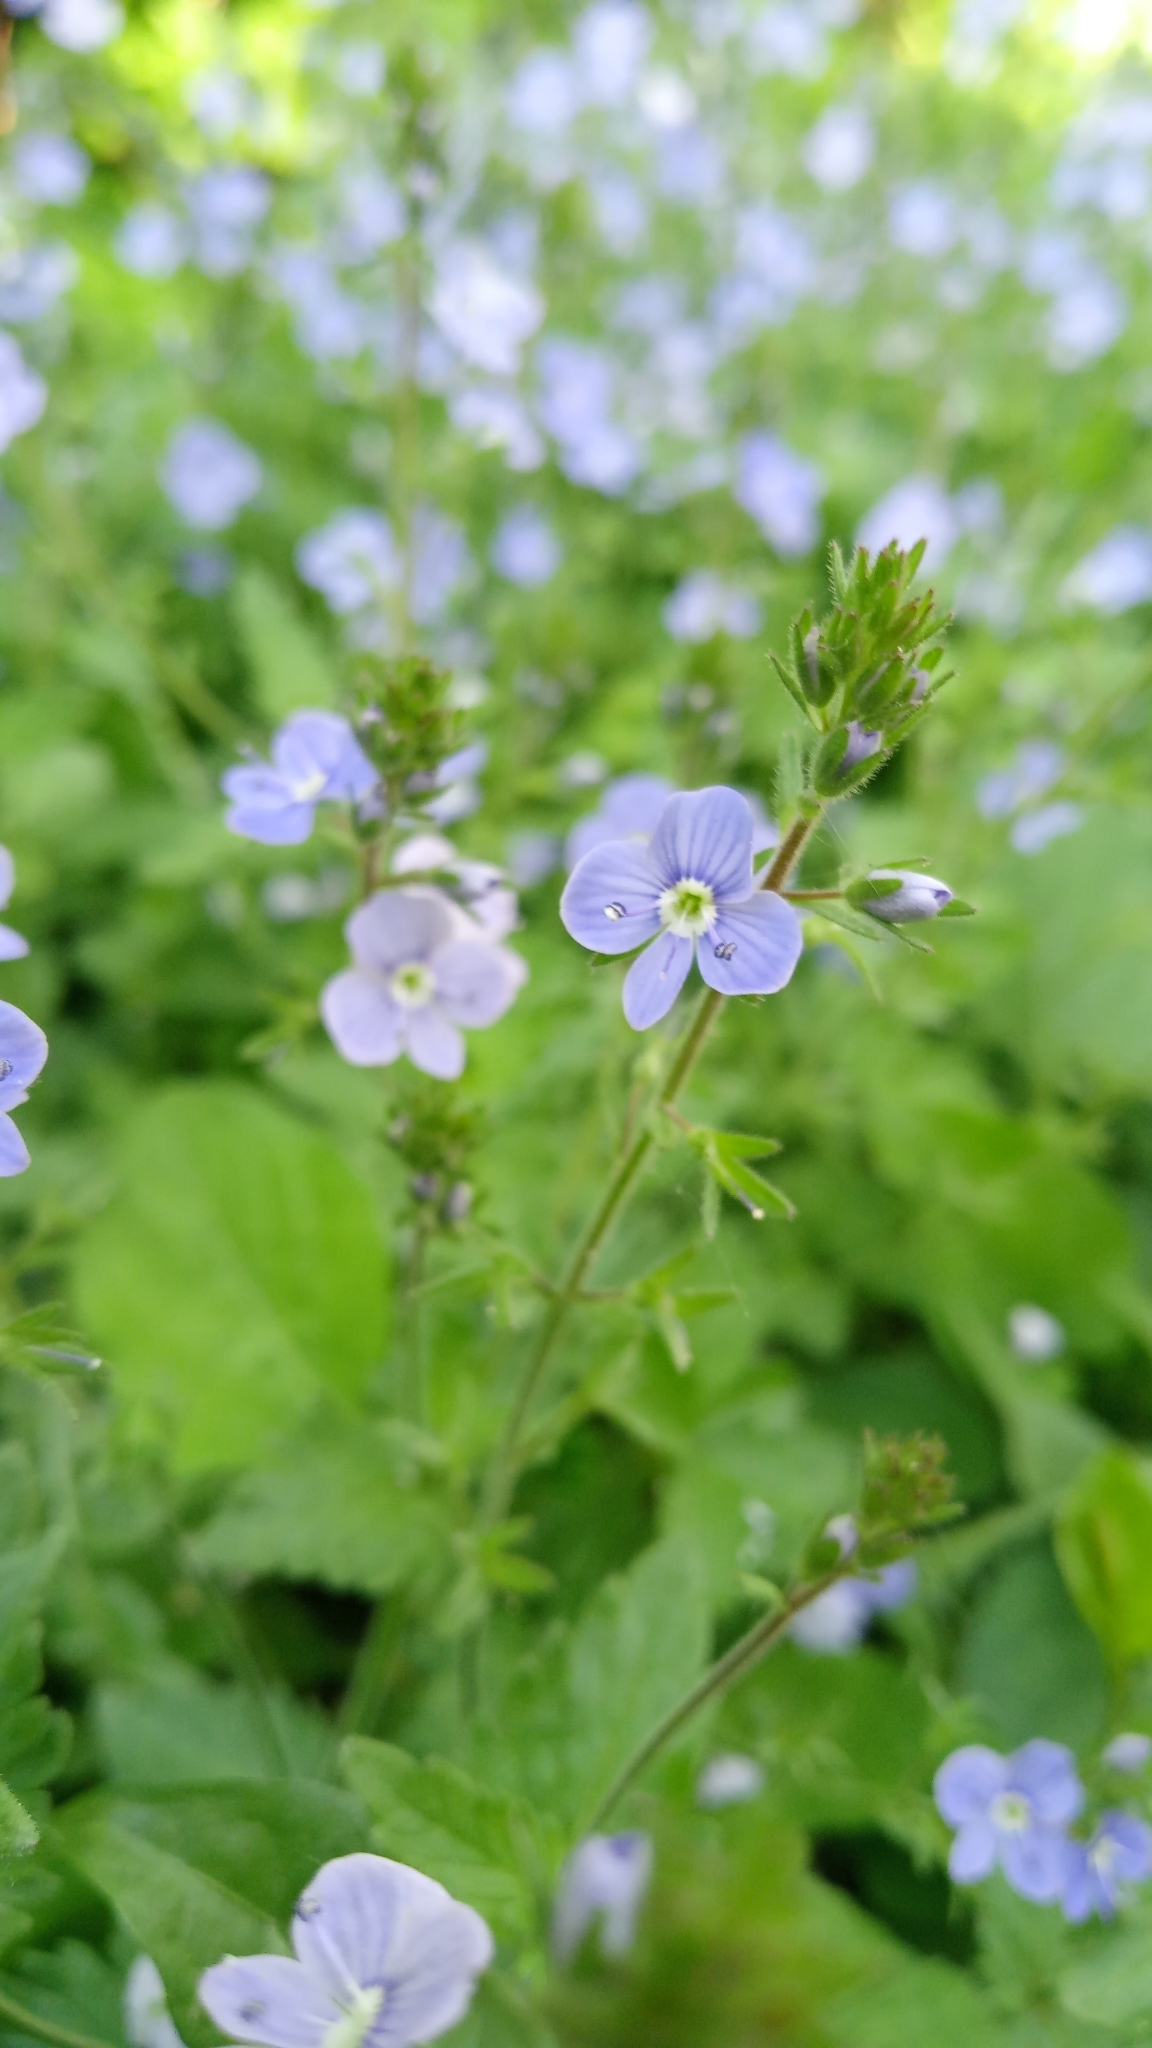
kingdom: Plantae
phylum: Tracheophyta
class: Magnoliopsida
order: Lamiales
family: Plantaginaceae
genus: Veronica
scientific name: Veronica chamaedrys
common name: Germander speedwell
